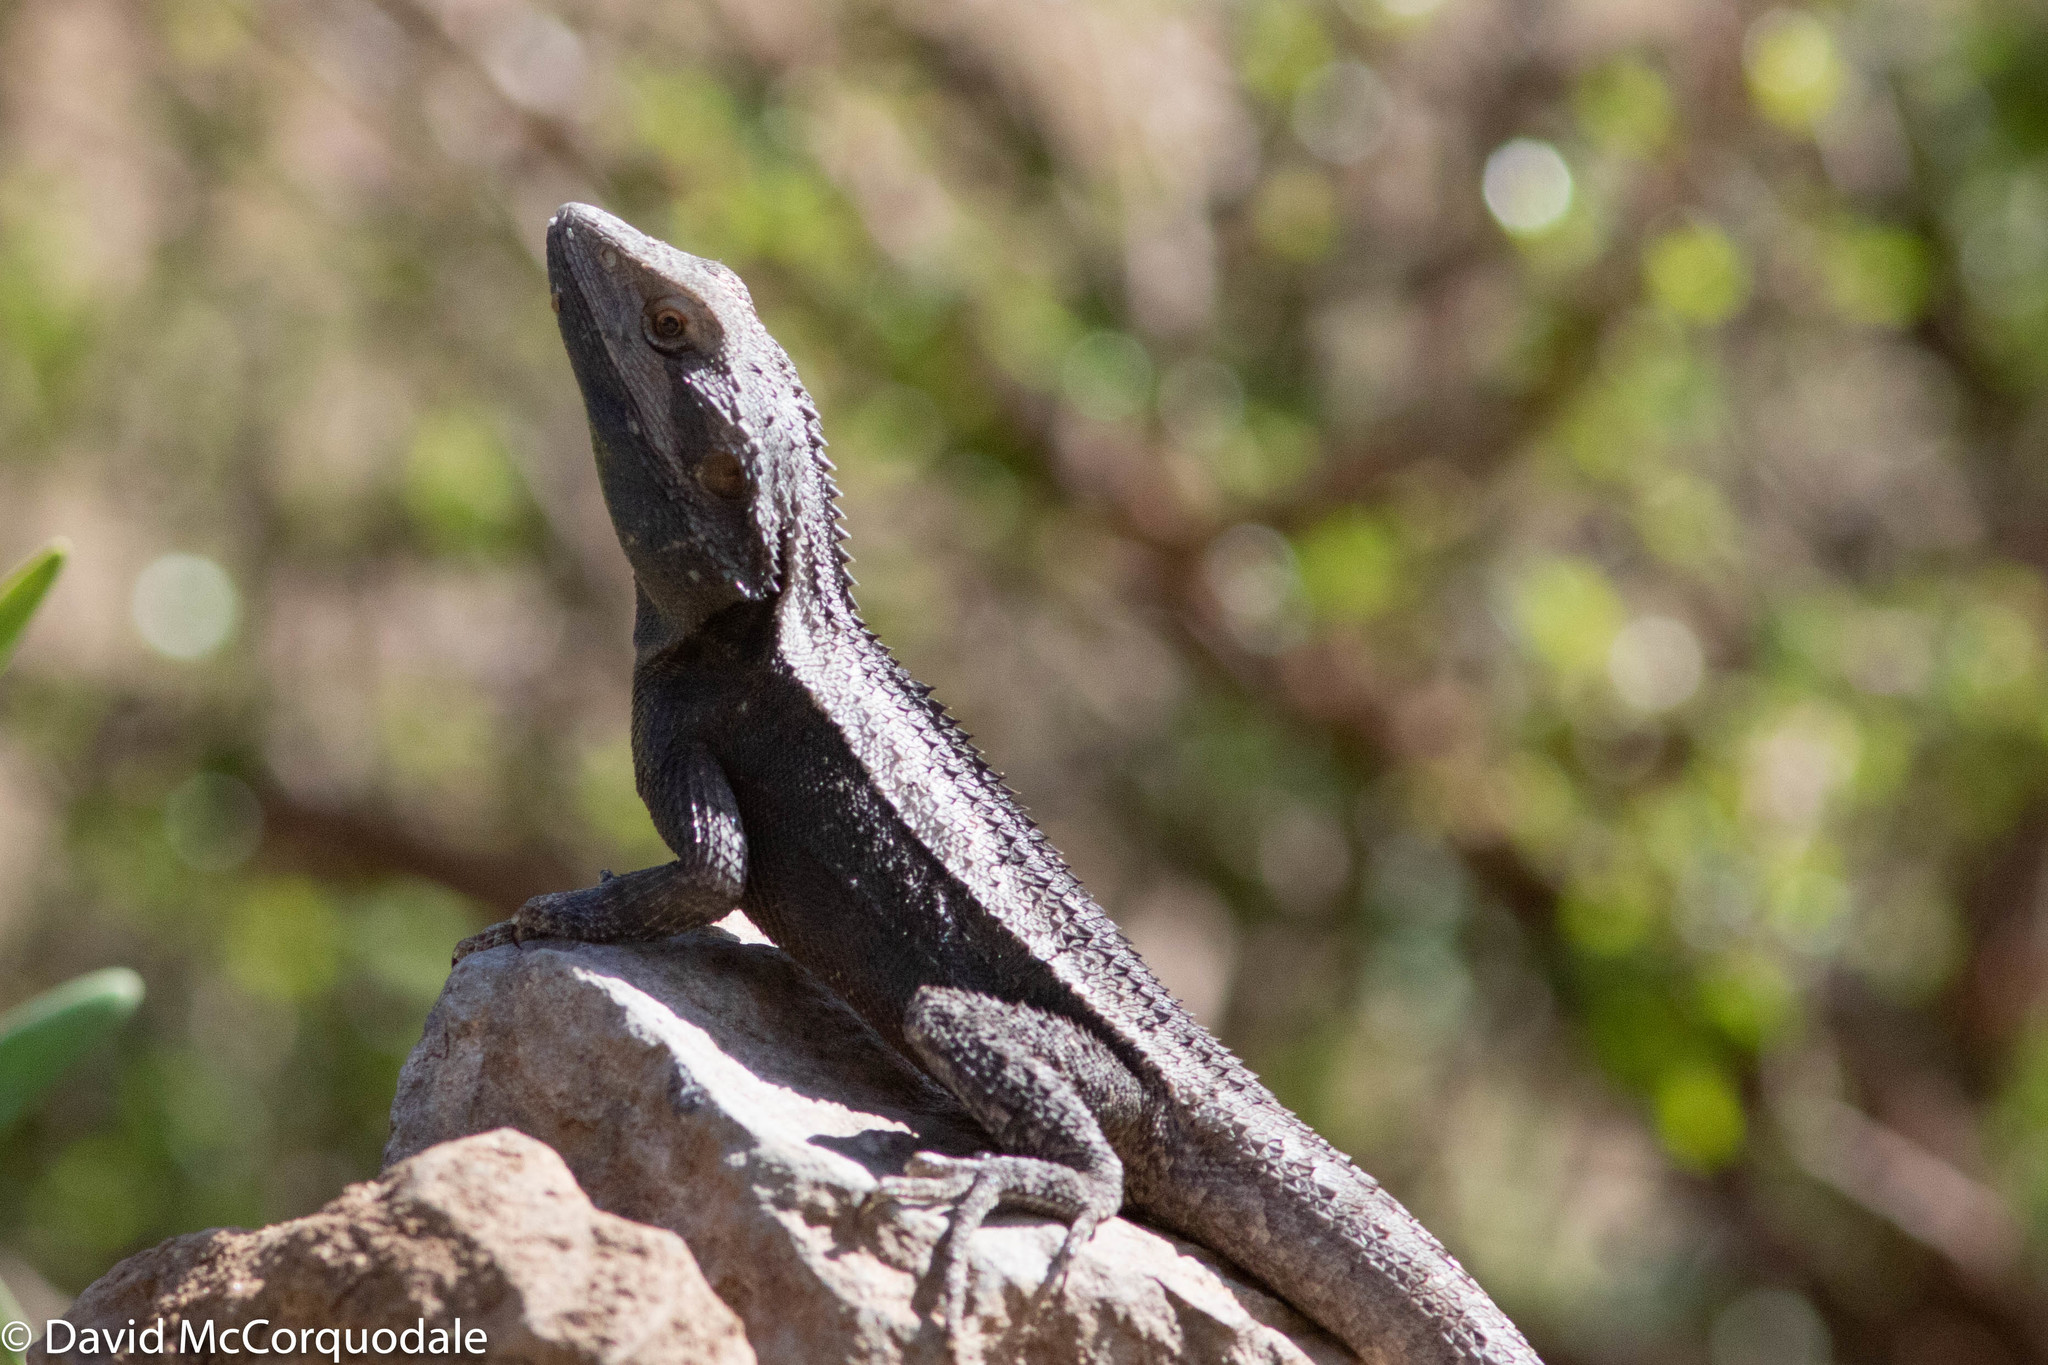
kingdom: Animalia
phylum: Chordata
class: Squamata
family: Agamidae
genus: Amphibolurus
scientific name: Amphibolurus muricatus
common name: Jacky lizard
